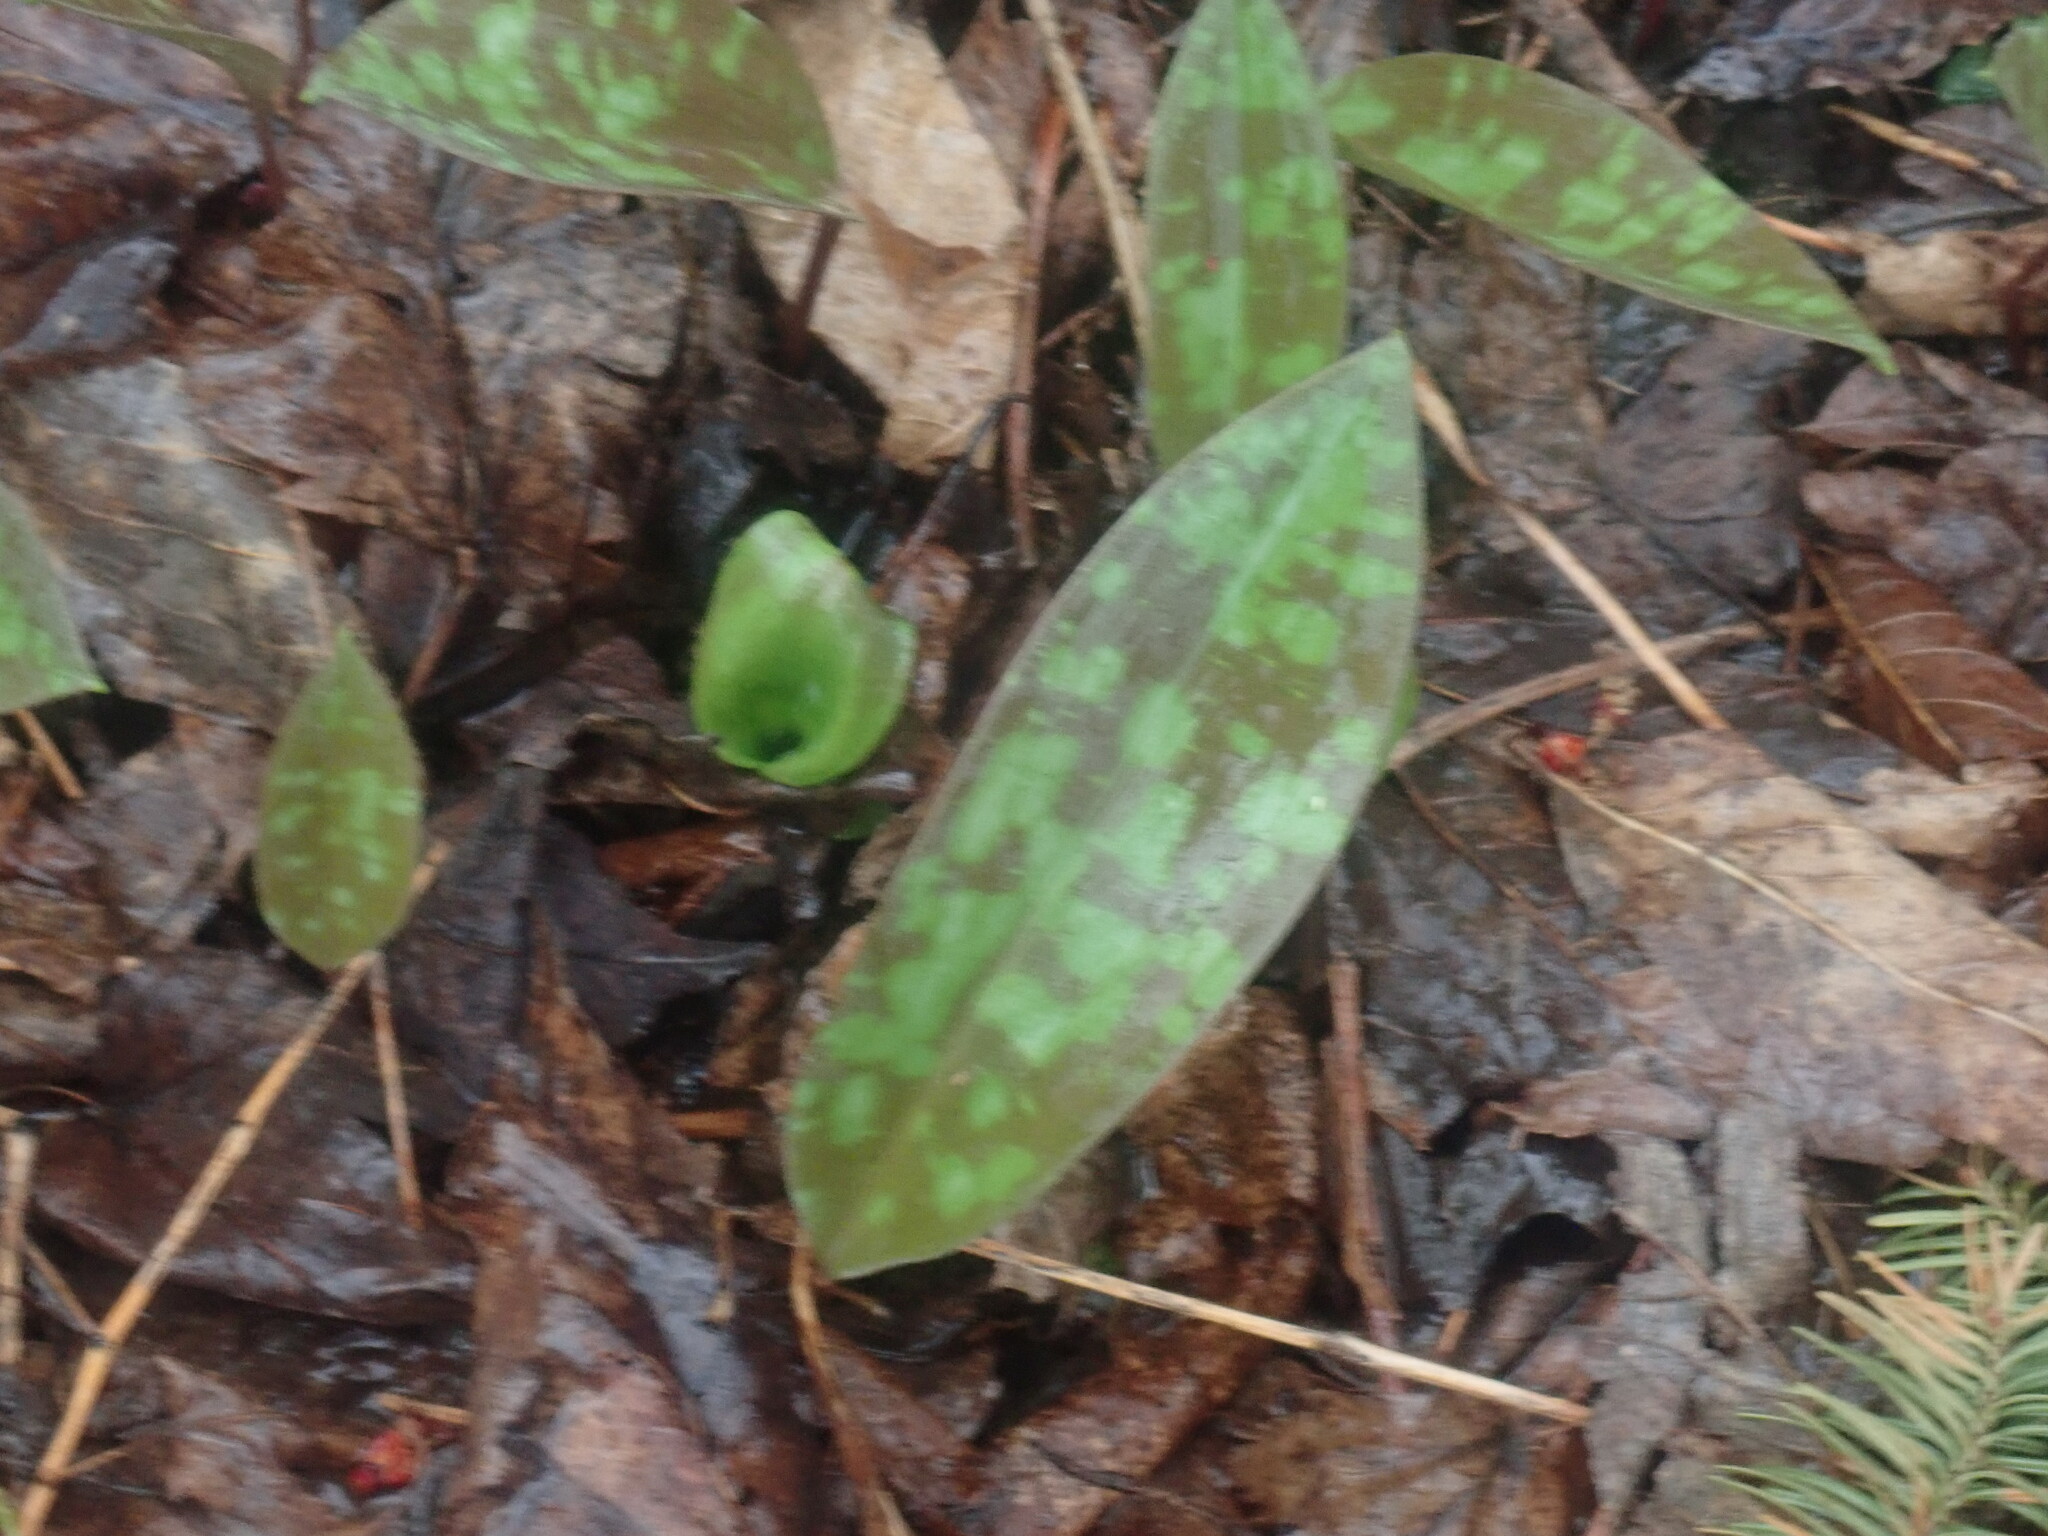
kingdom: Plantae
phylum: Tracheophyta
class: Liliopsida
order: Liliales
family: Liliaceae
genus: Erythronium
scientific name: Erythronium americanum
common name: Yellow adder's-tongue
